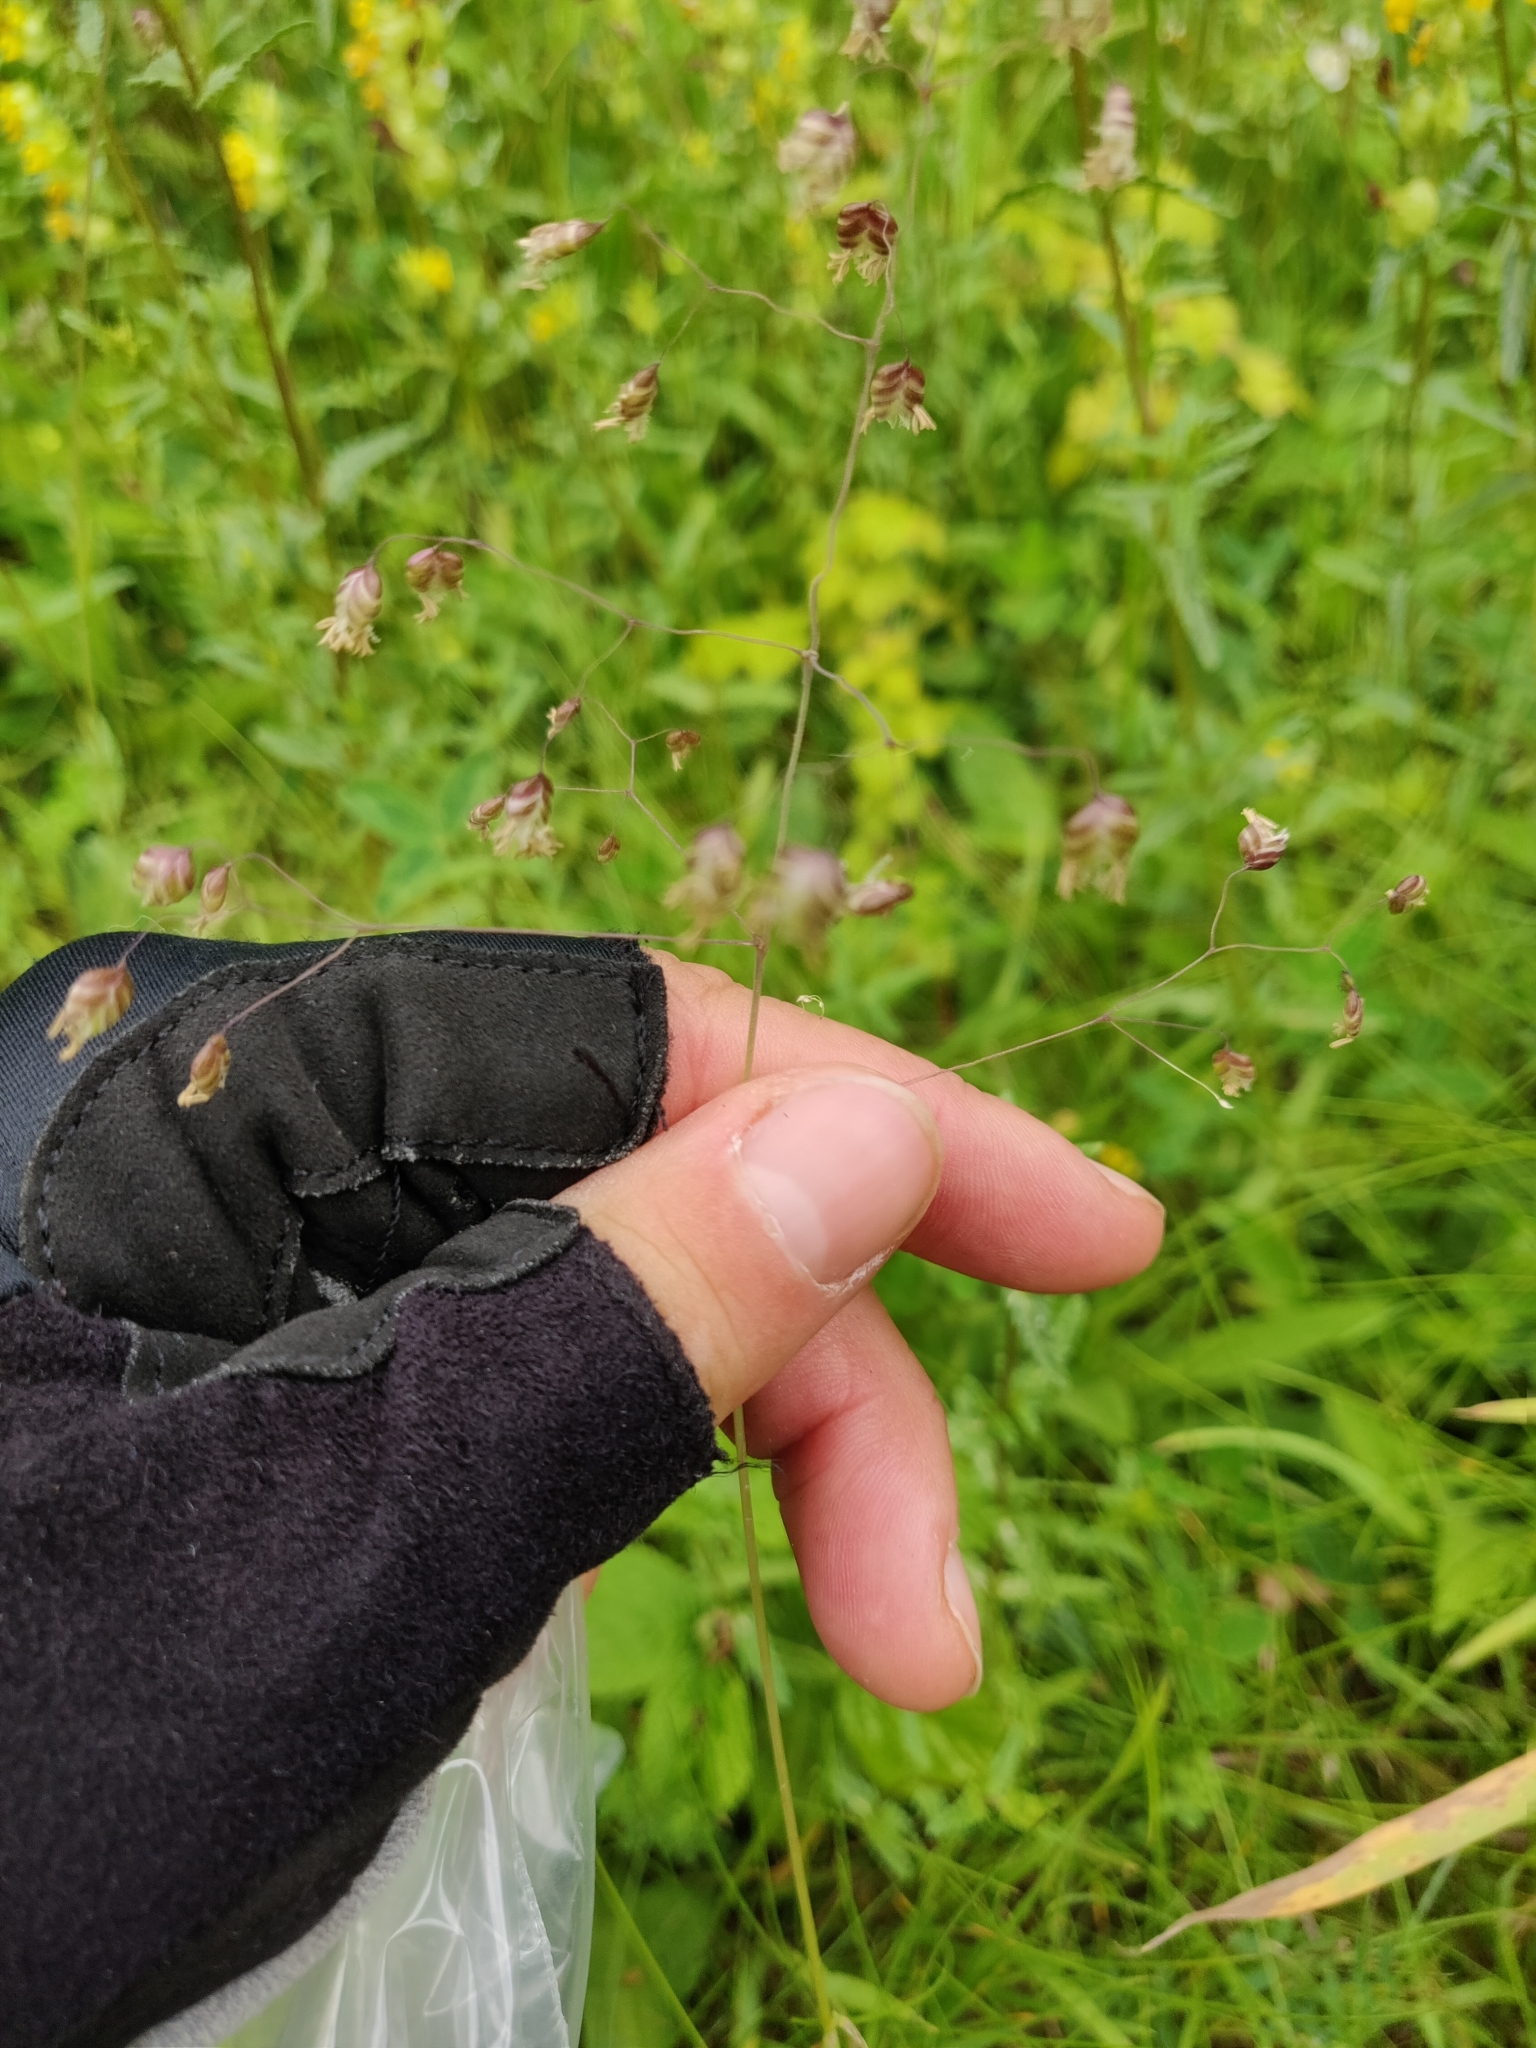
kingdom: Plantae
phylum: Tracheophyta
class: Liliopsida
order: Poales
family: Poaceae
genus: Briza
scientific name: Briza media
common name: Quaking grass
